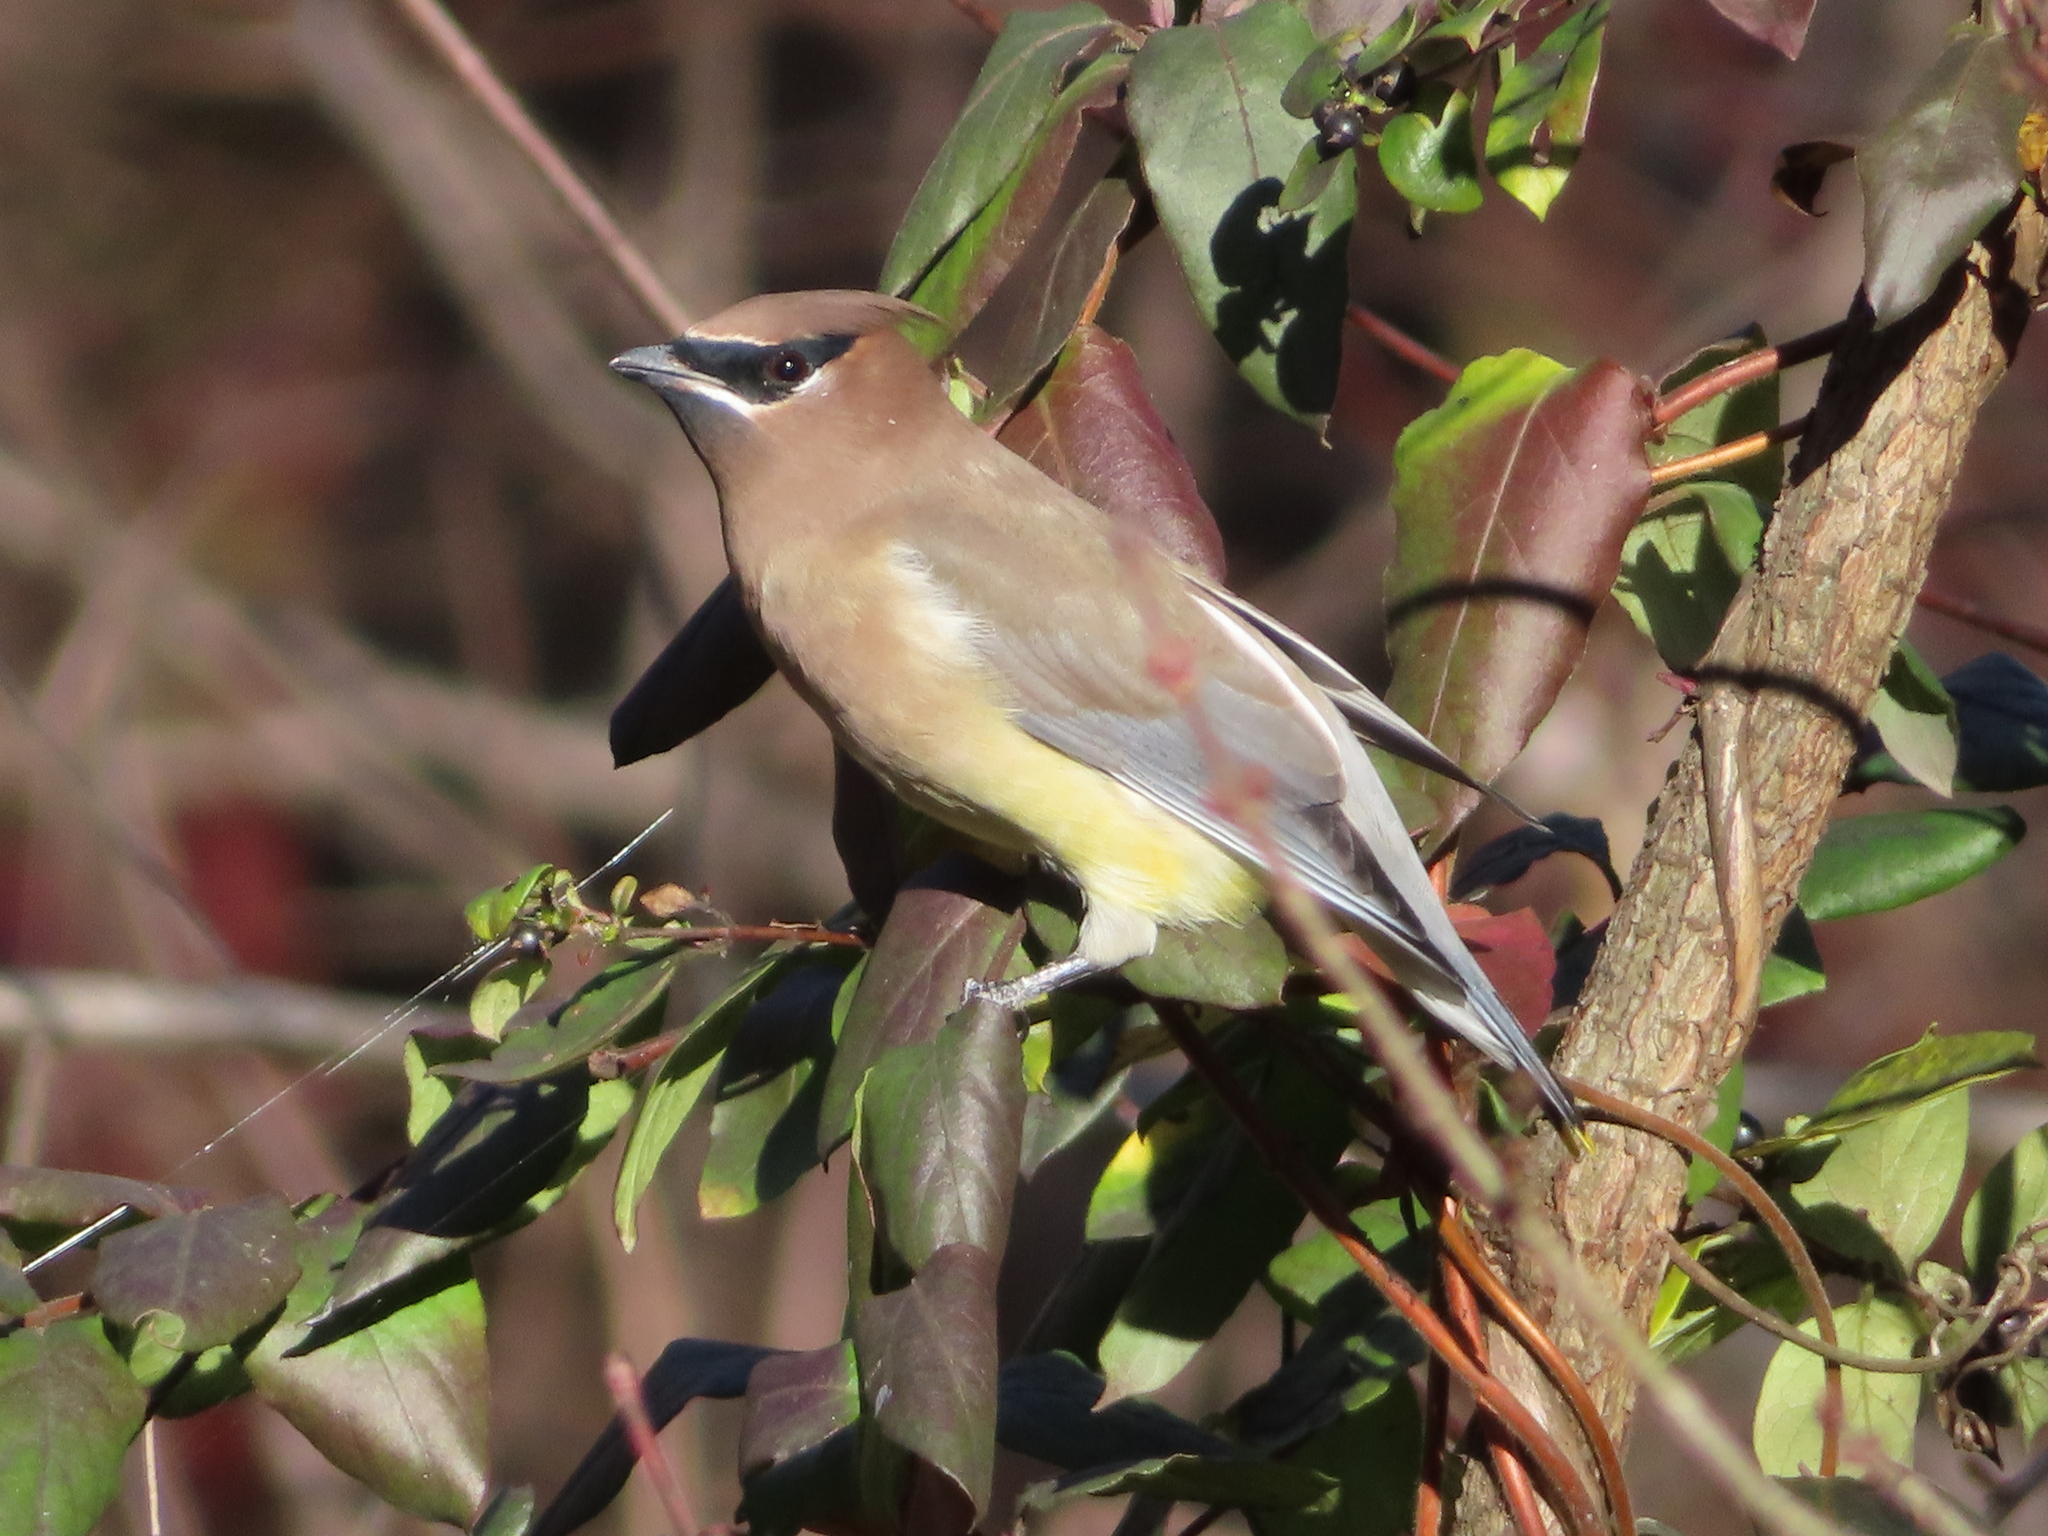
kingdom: Animalia
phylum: Chordata
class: Aves
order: Passeriformes
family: Bombycillidae
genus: Bombycilla
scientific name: Bombycilla cedrorum
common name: Cedar waxwing
